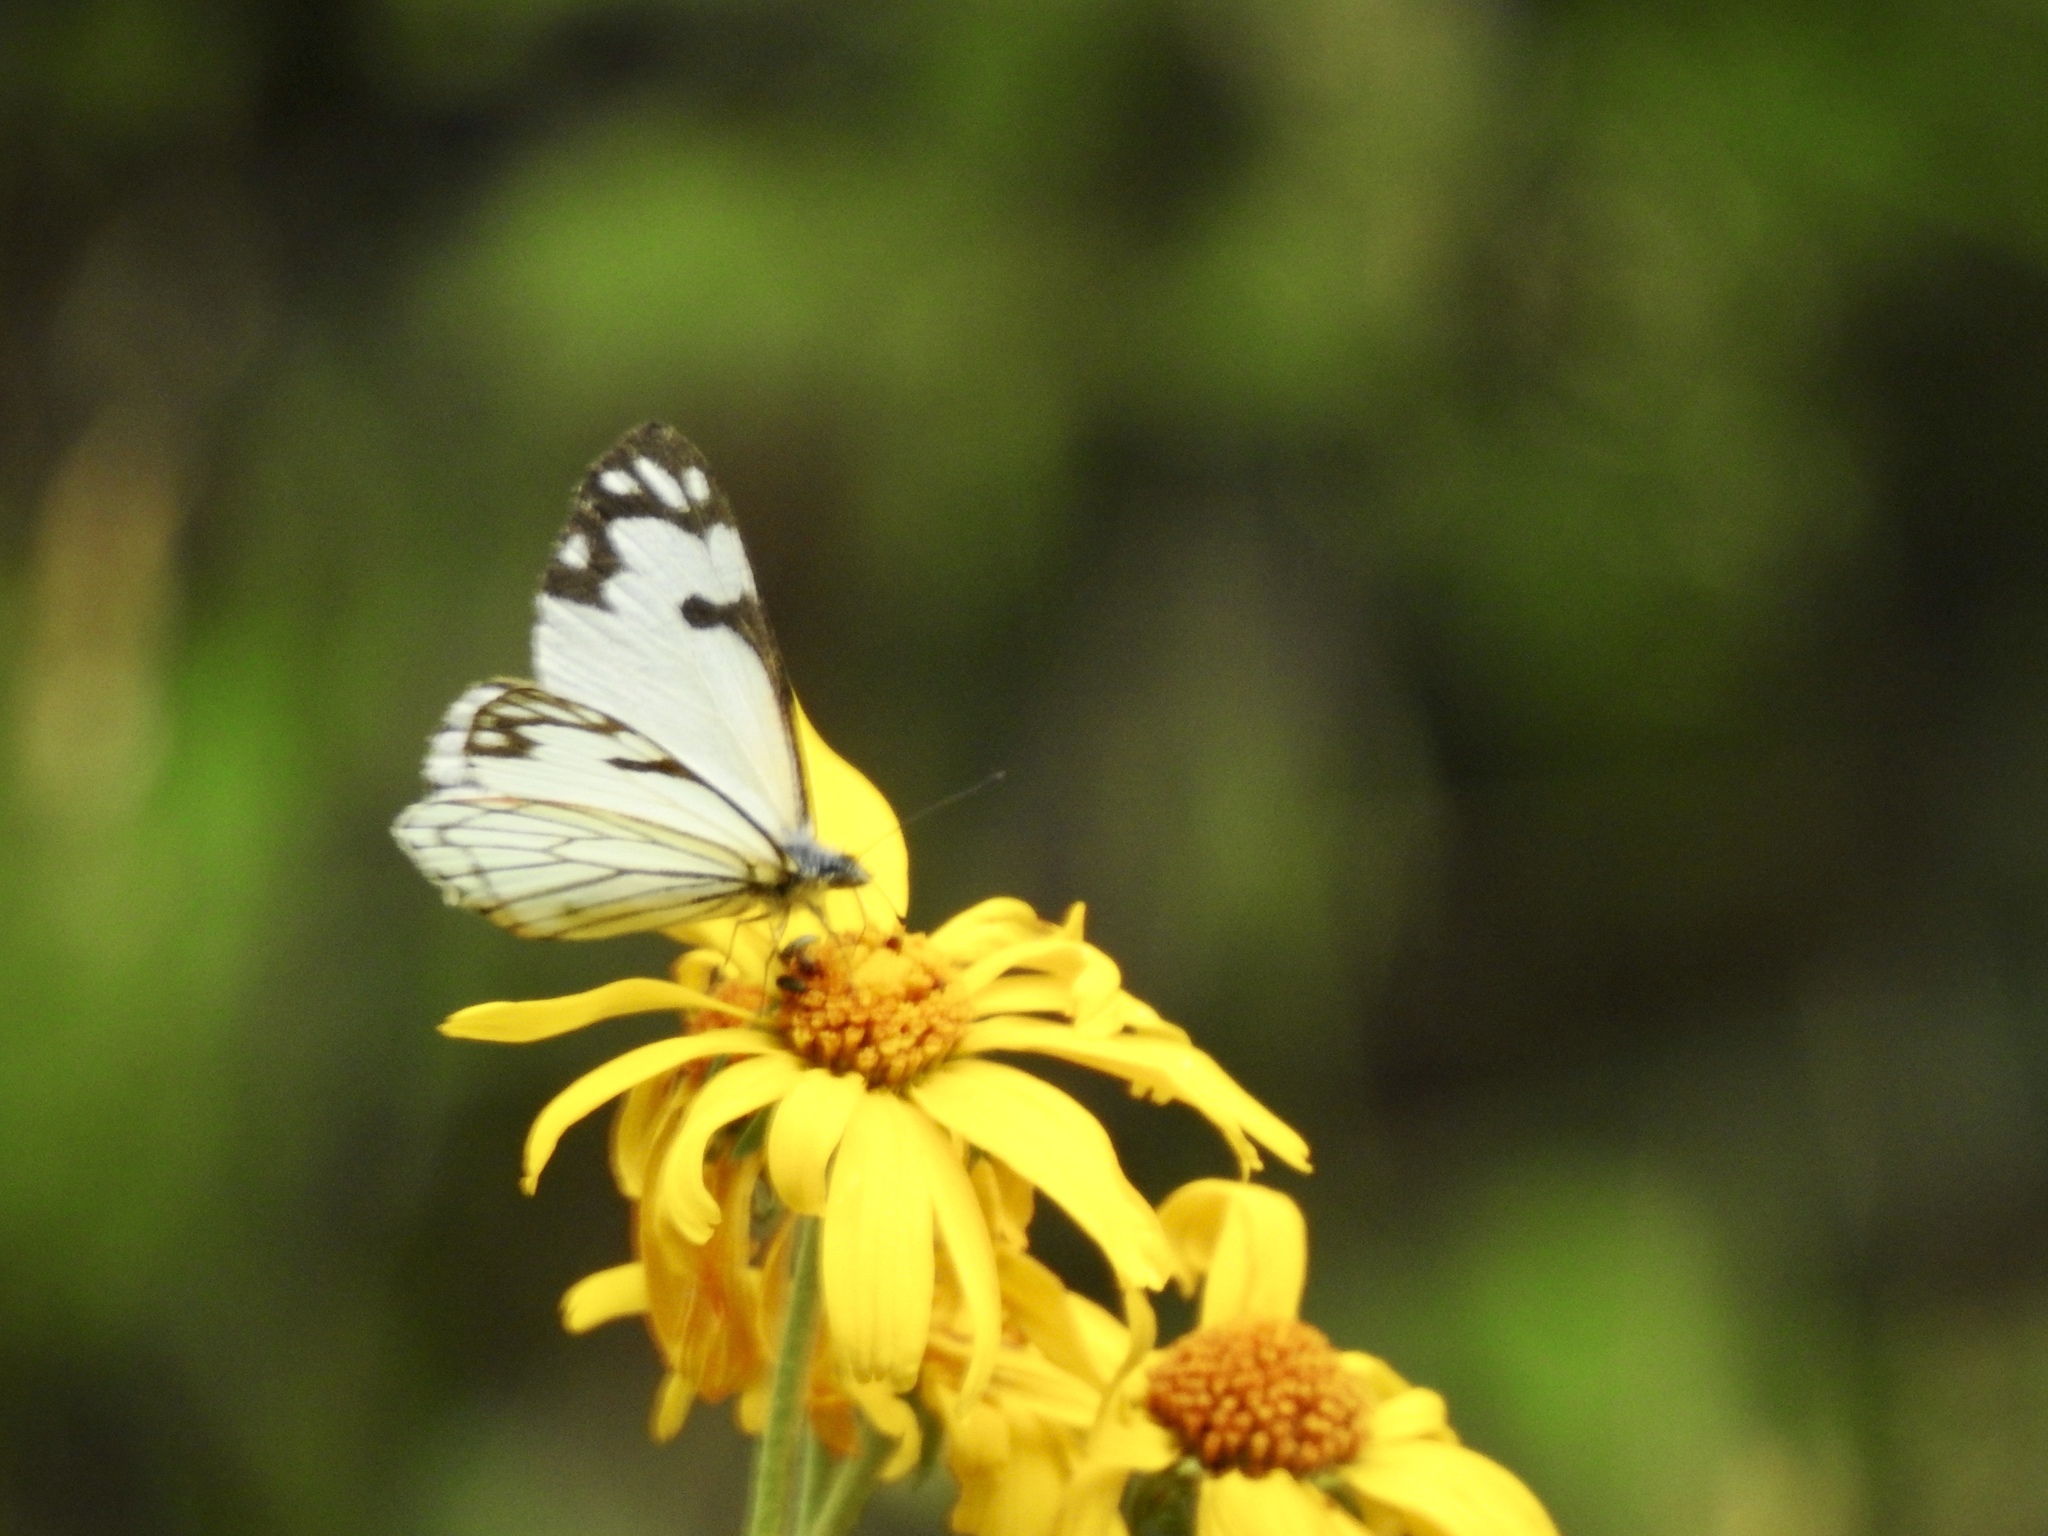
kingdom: Animalia
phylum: Arthropoda
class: Insecta
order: Lepidoptera
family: Pieridae
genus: Neophasia
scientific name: Neophasia menapia
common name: Pine white
